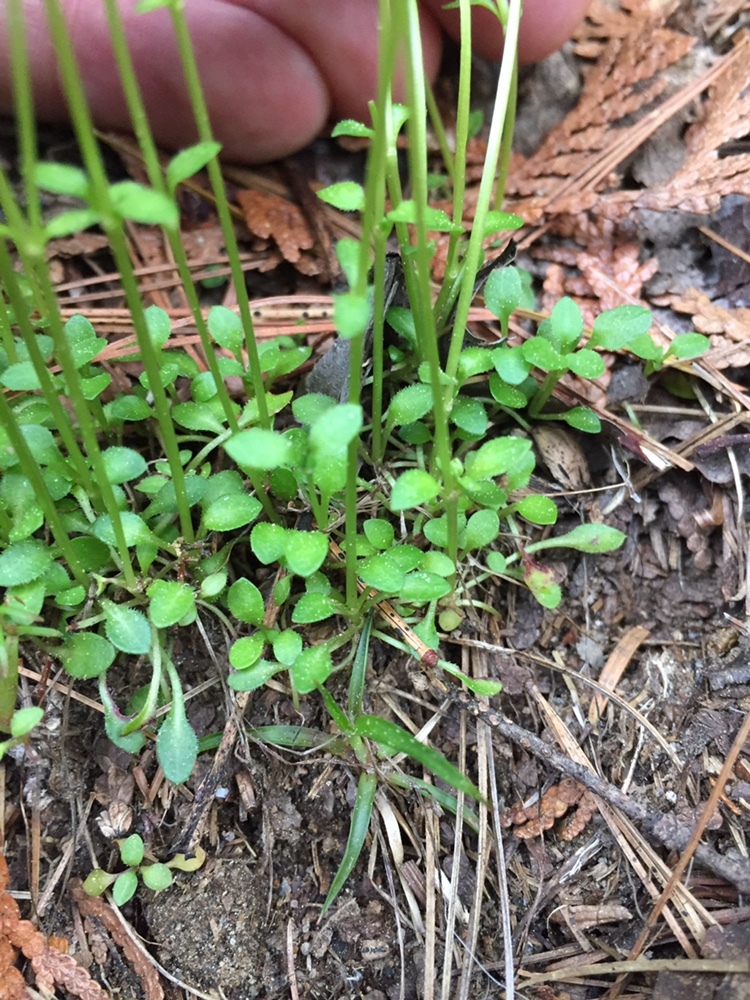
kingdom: Plantae
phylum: Tracheophyta
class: Magnoliopsida
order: Gentianales
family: Rubiaceae
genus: Houstonia
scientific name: Houstonia caerulea
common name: Bluets
